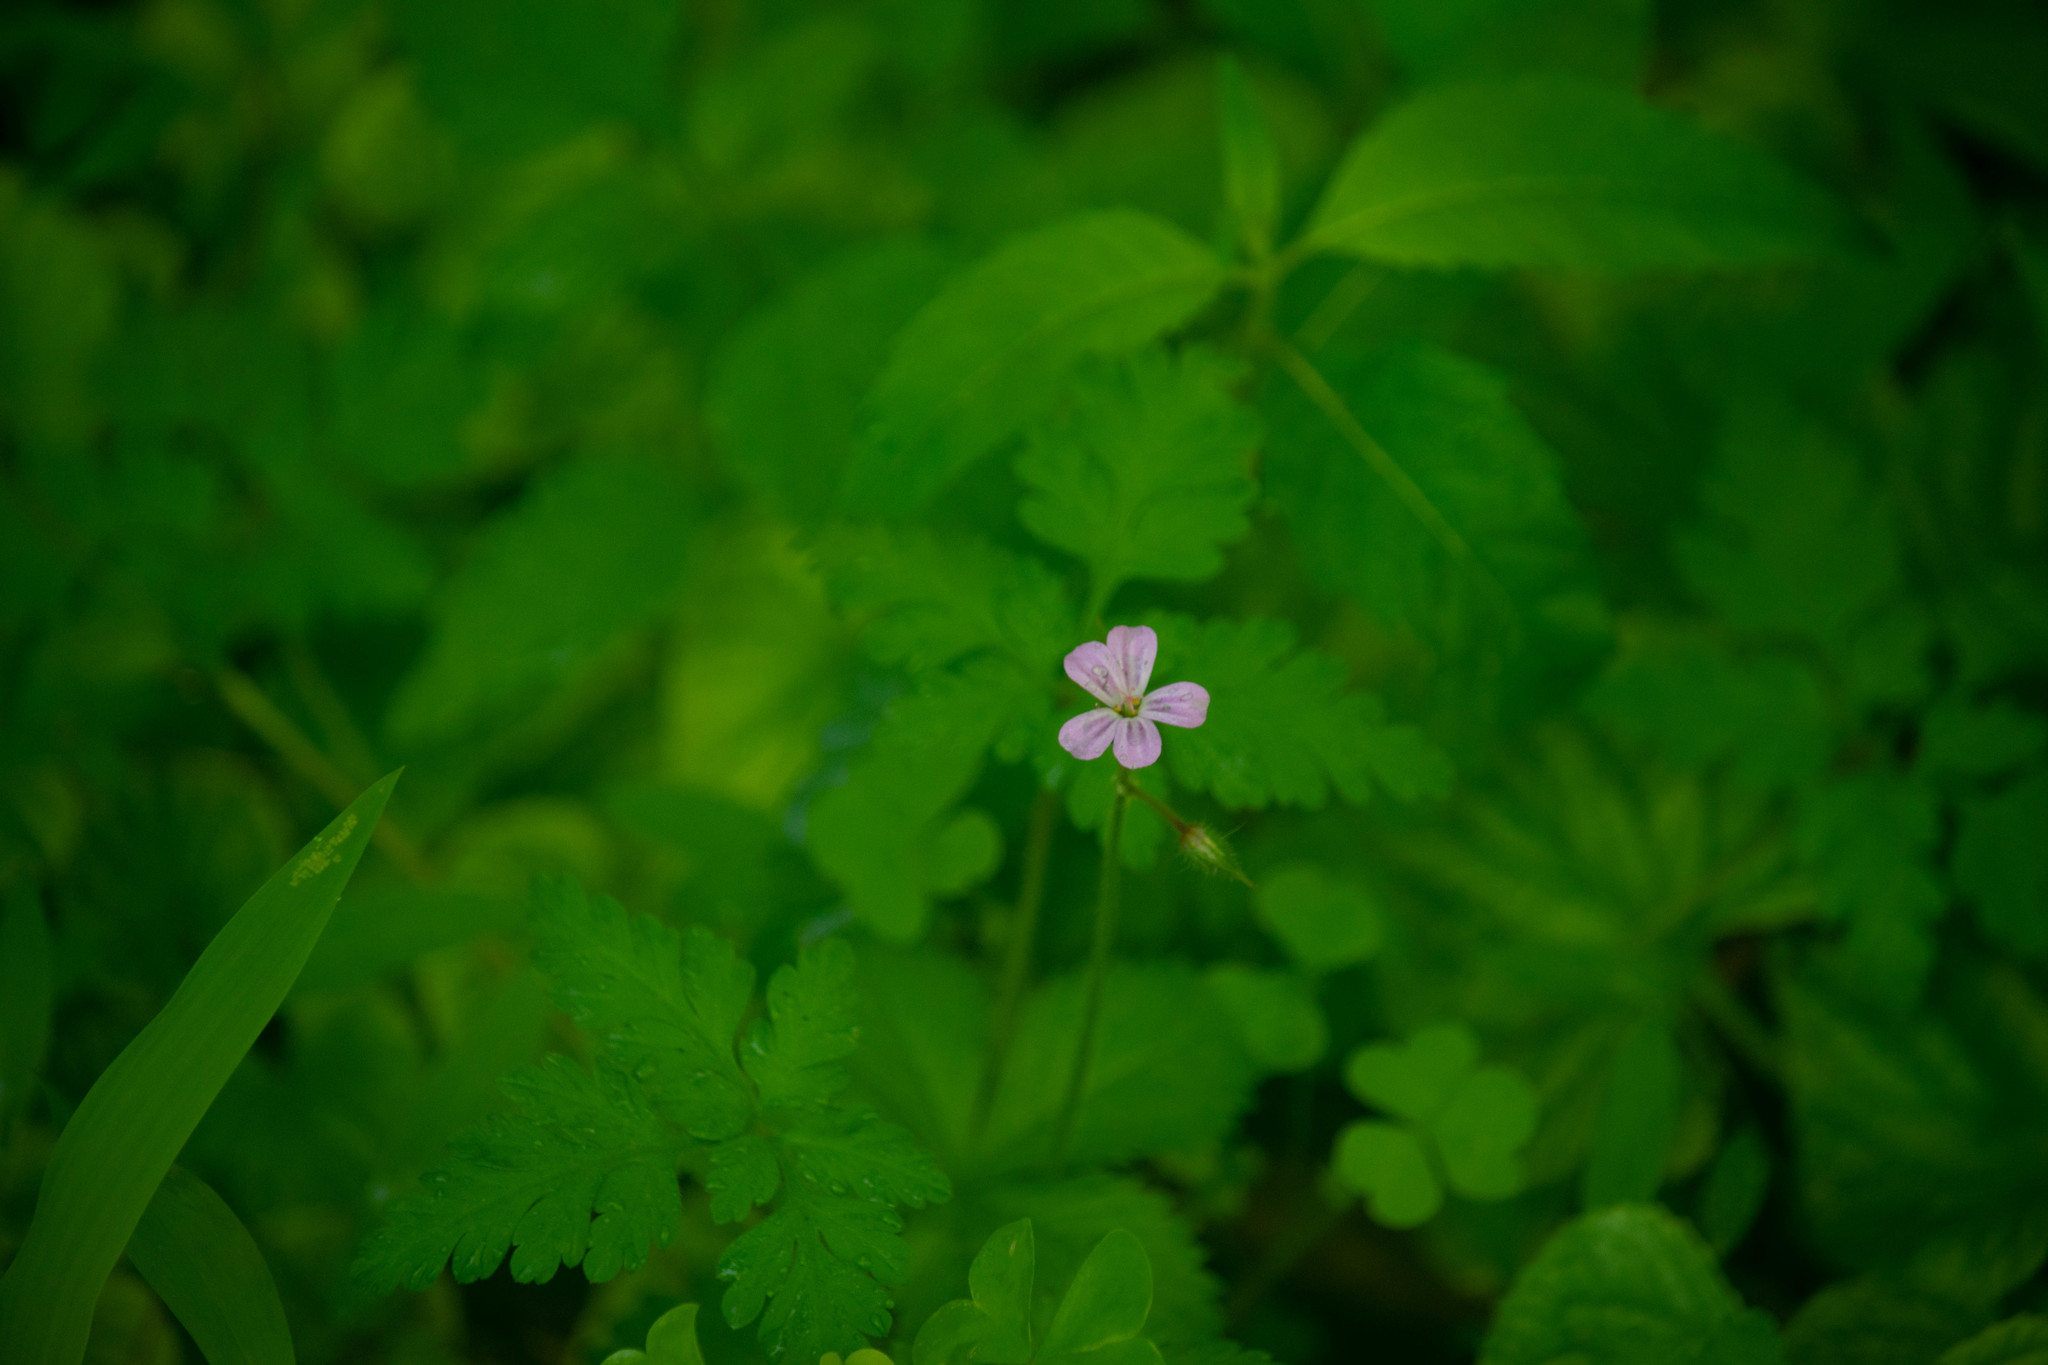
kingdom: Plantae
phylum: Tracheophyta
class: Magnoliopsida
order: Geraniales
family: Geraniaceae
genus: Geranium
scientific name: Geranium robertianum
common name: Herb-robert
